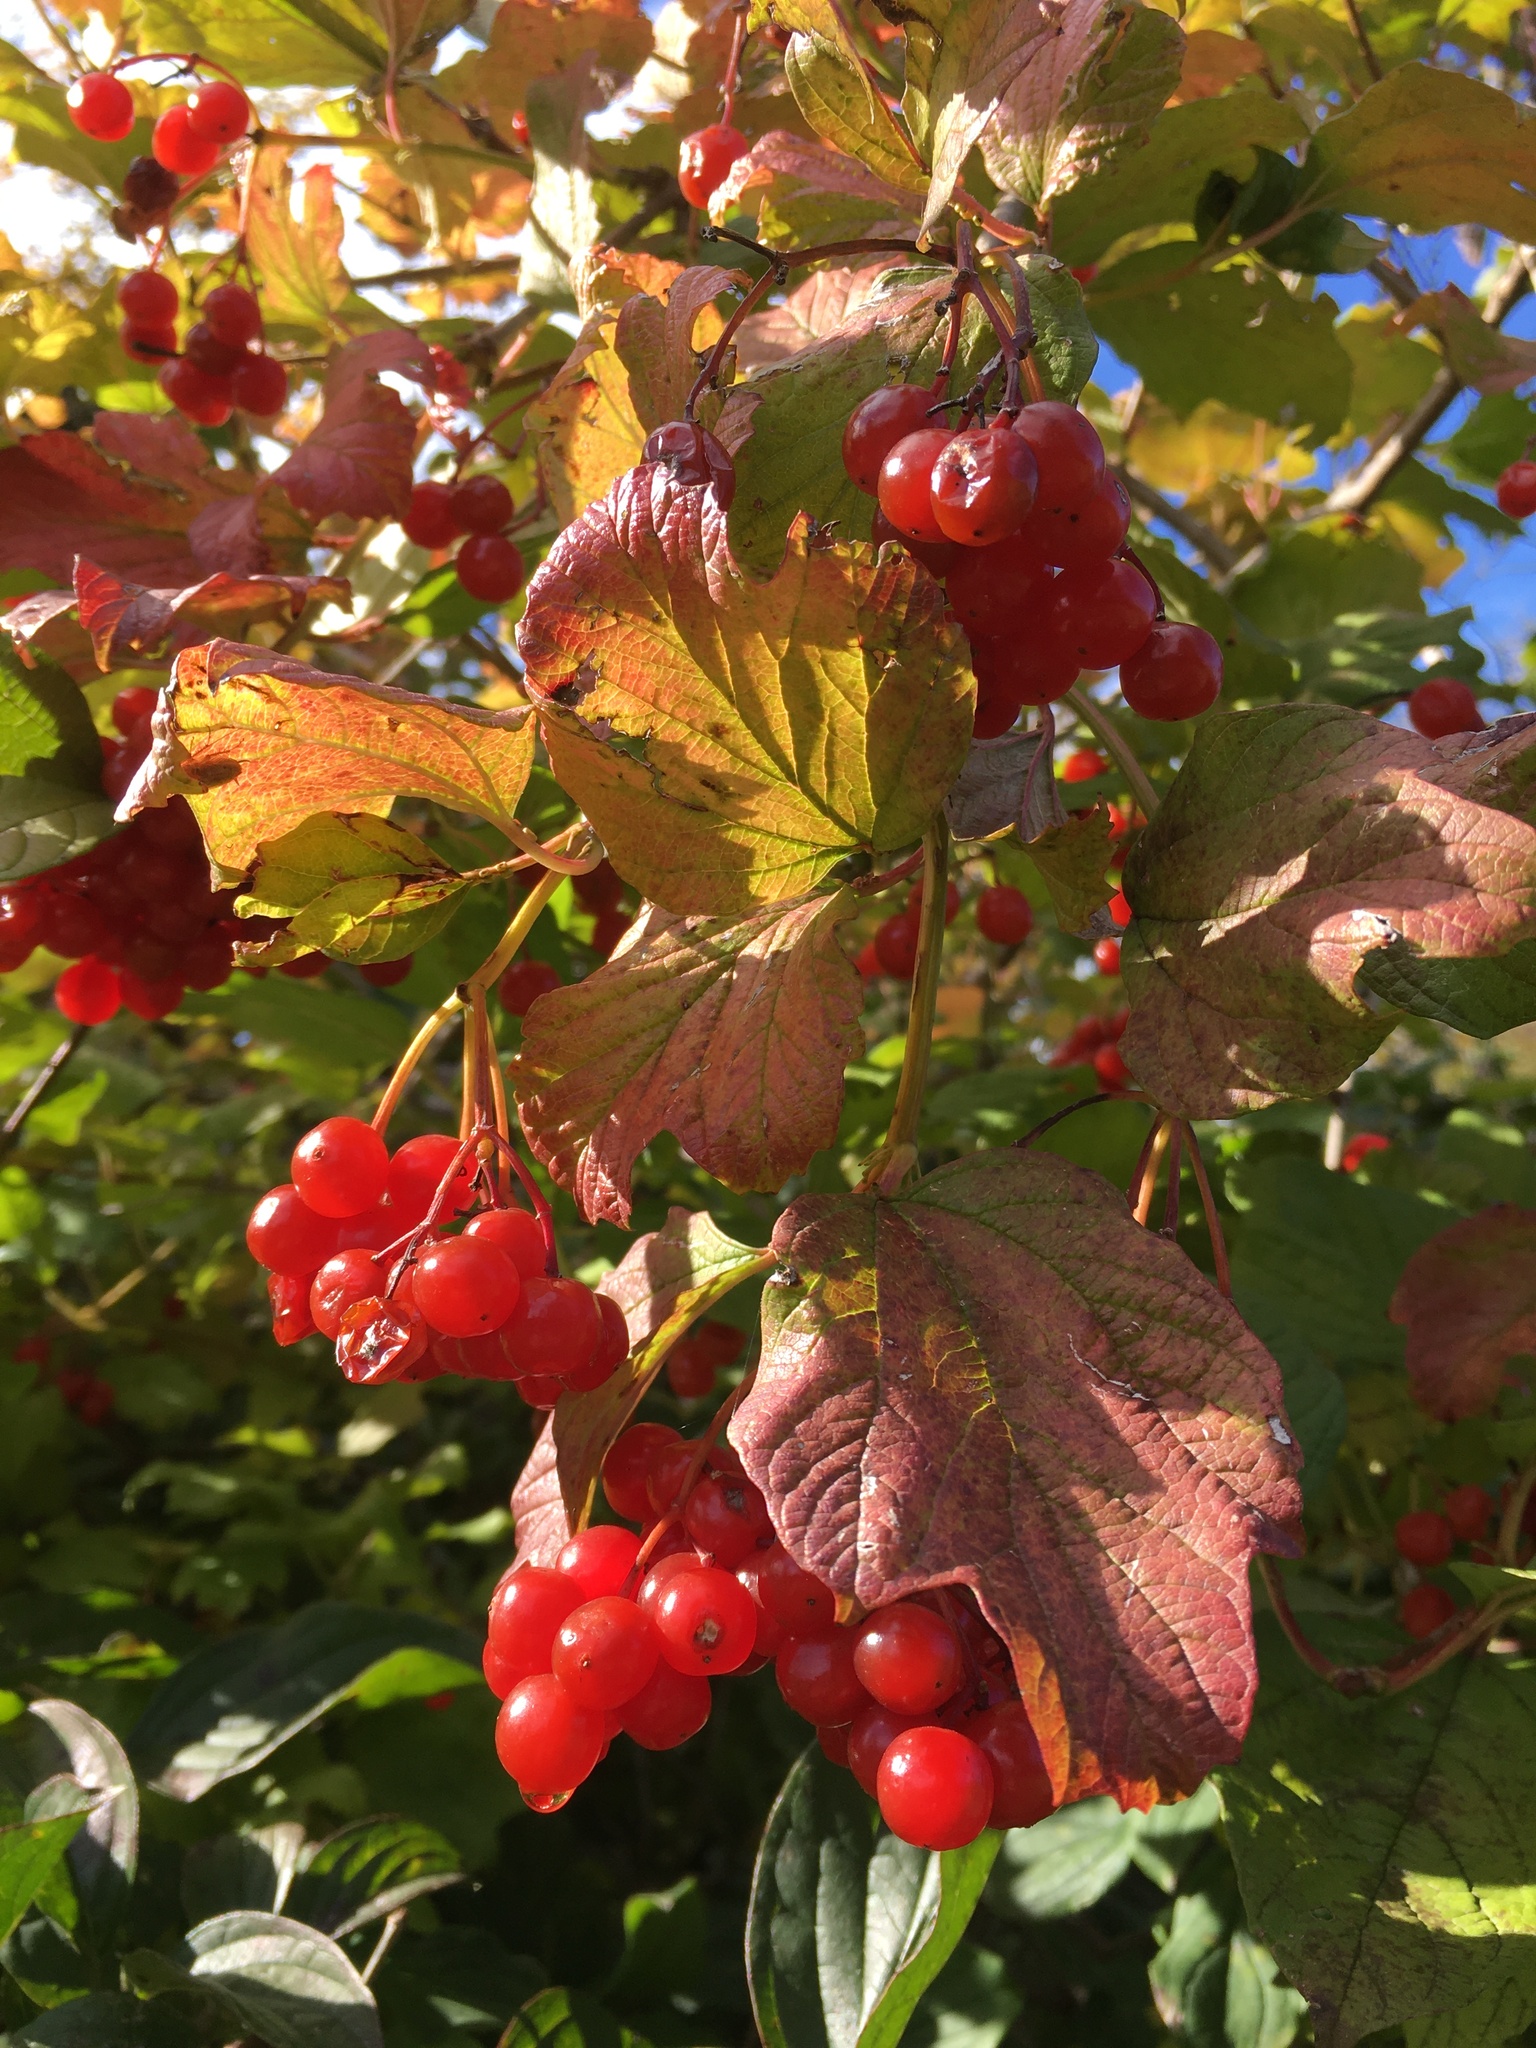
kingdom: Plantae
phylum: Tracheophyta
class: Magnoliopsida
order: Dipsacales
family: Viburnaceae
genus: Viburnum
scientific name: Viburnum opulus
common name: Guelder-rose
